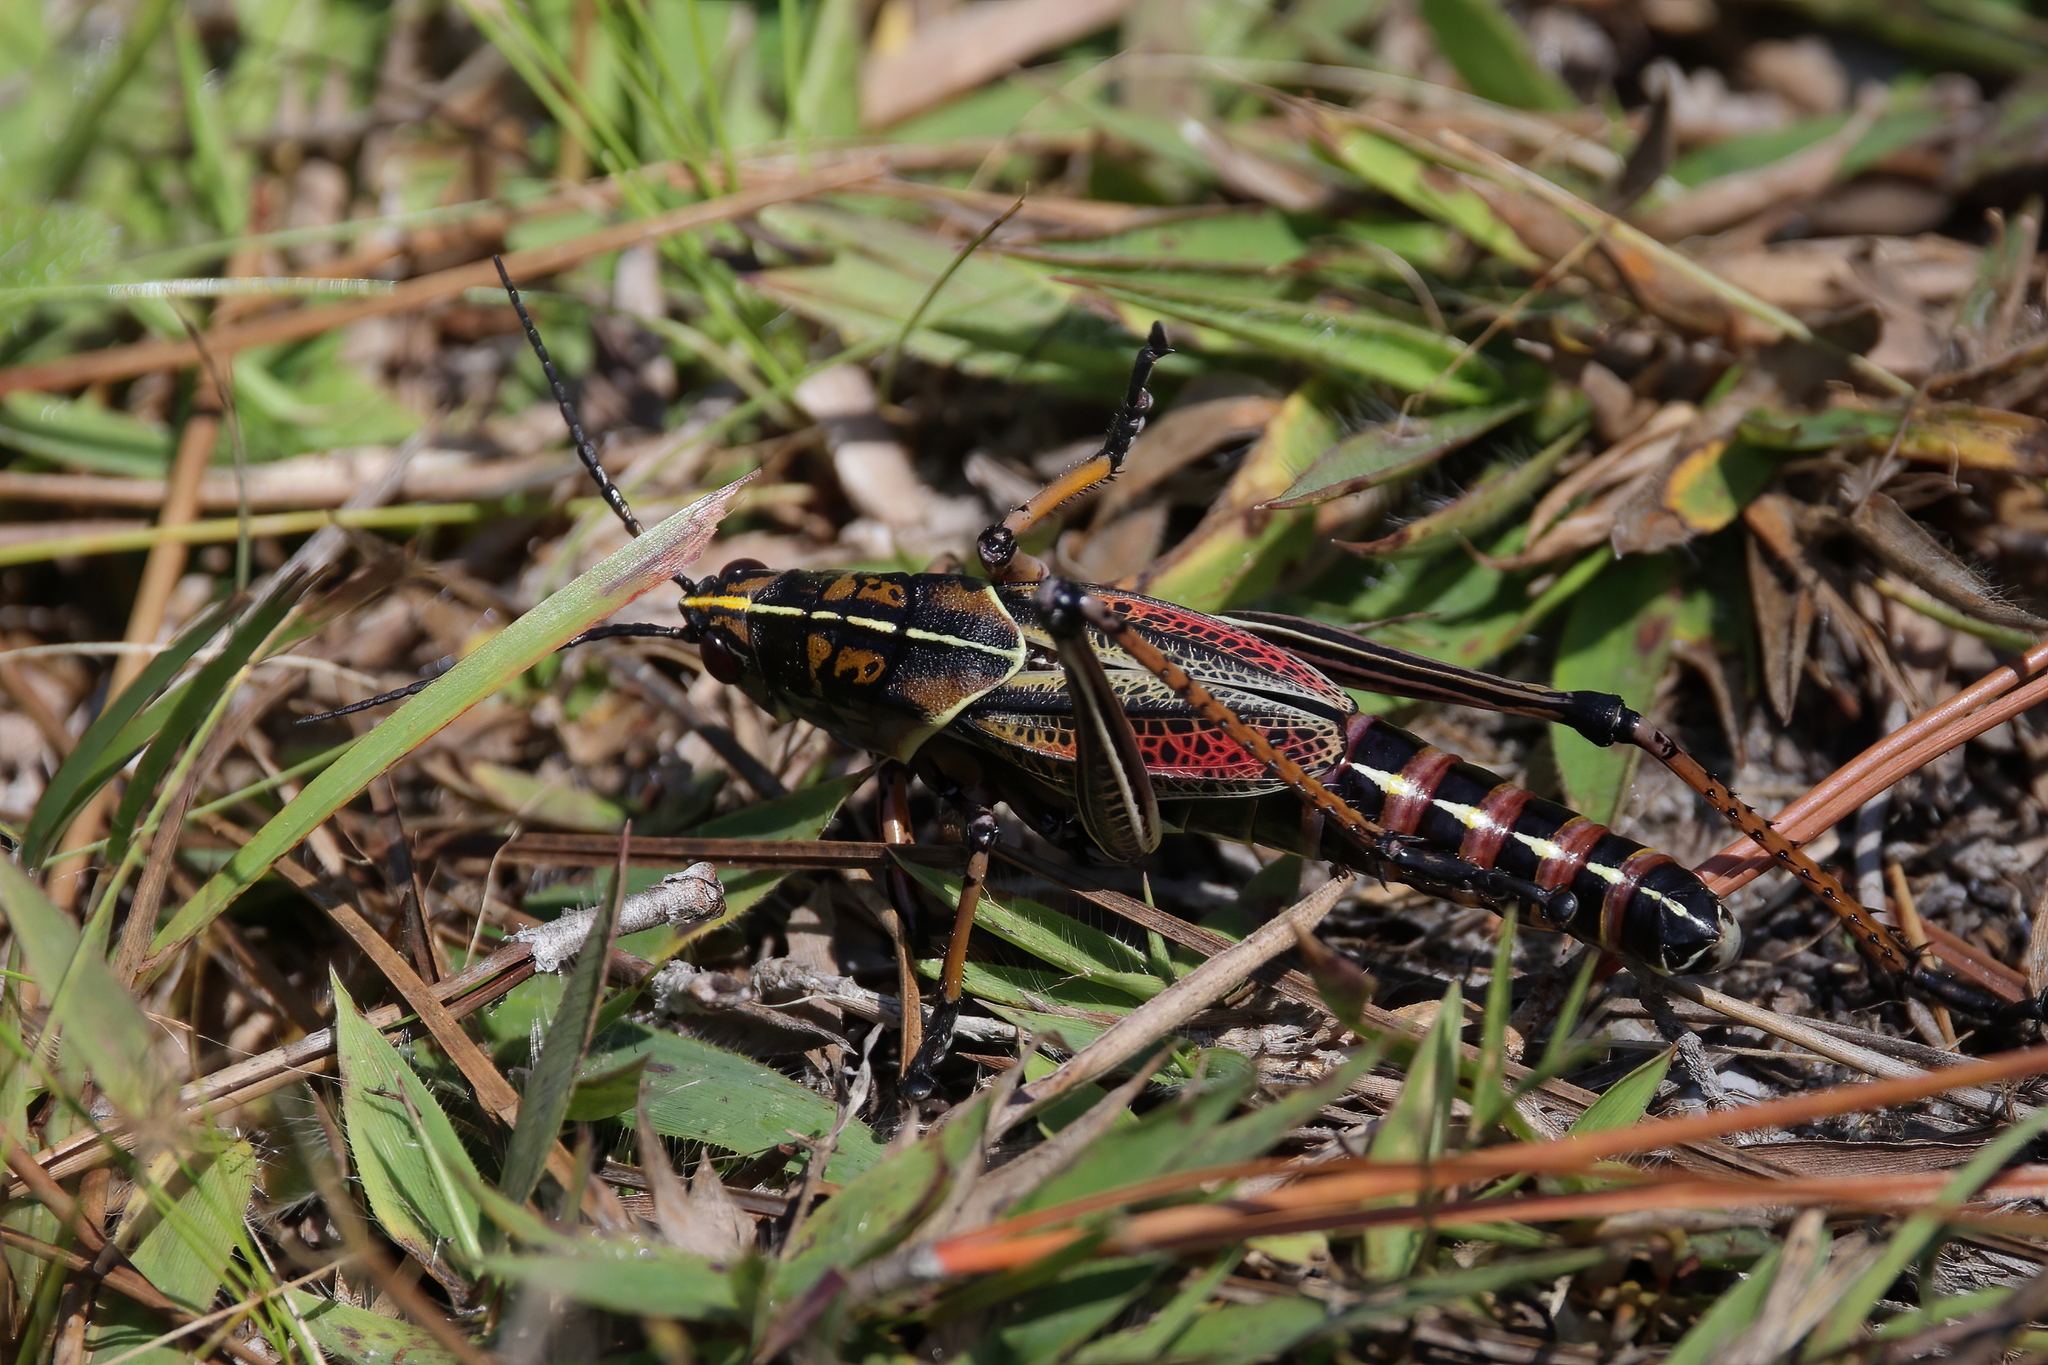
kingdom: Animalia
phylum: Arthropoda
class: Insecta
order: Orthoptera
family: Romaleidae
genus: Romalea
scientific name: Romalea microptera
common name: Eastern lubber grasshopper
